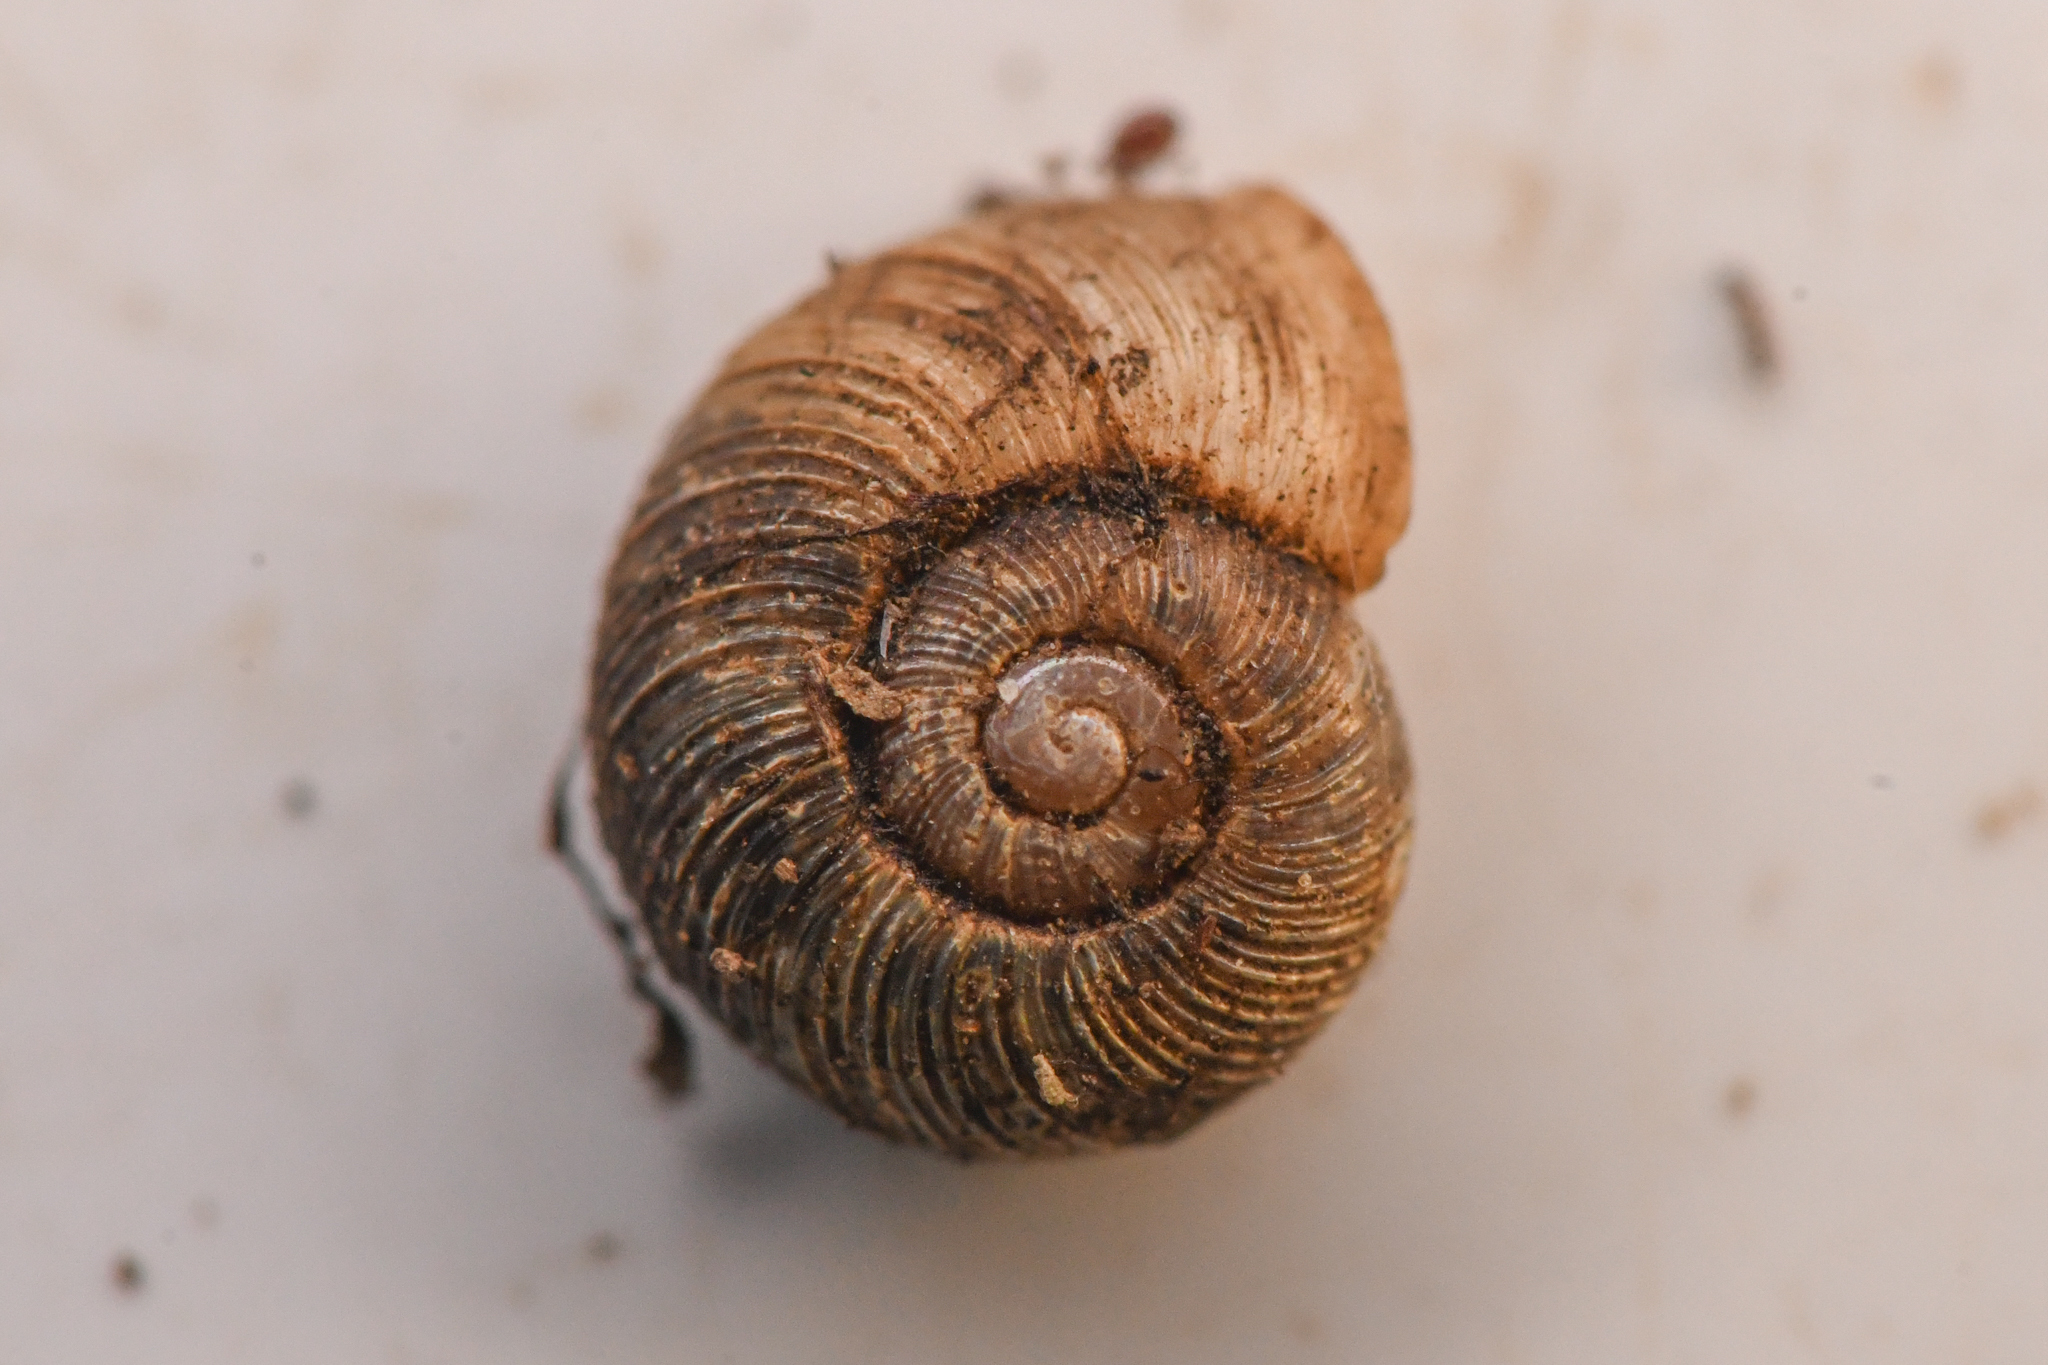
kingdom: Animalia
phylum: Mollusca
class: Gastropoda
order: Stylommatophora
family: Haplotrematidae
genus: Haplotrema
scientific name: Haplotrema duranti
